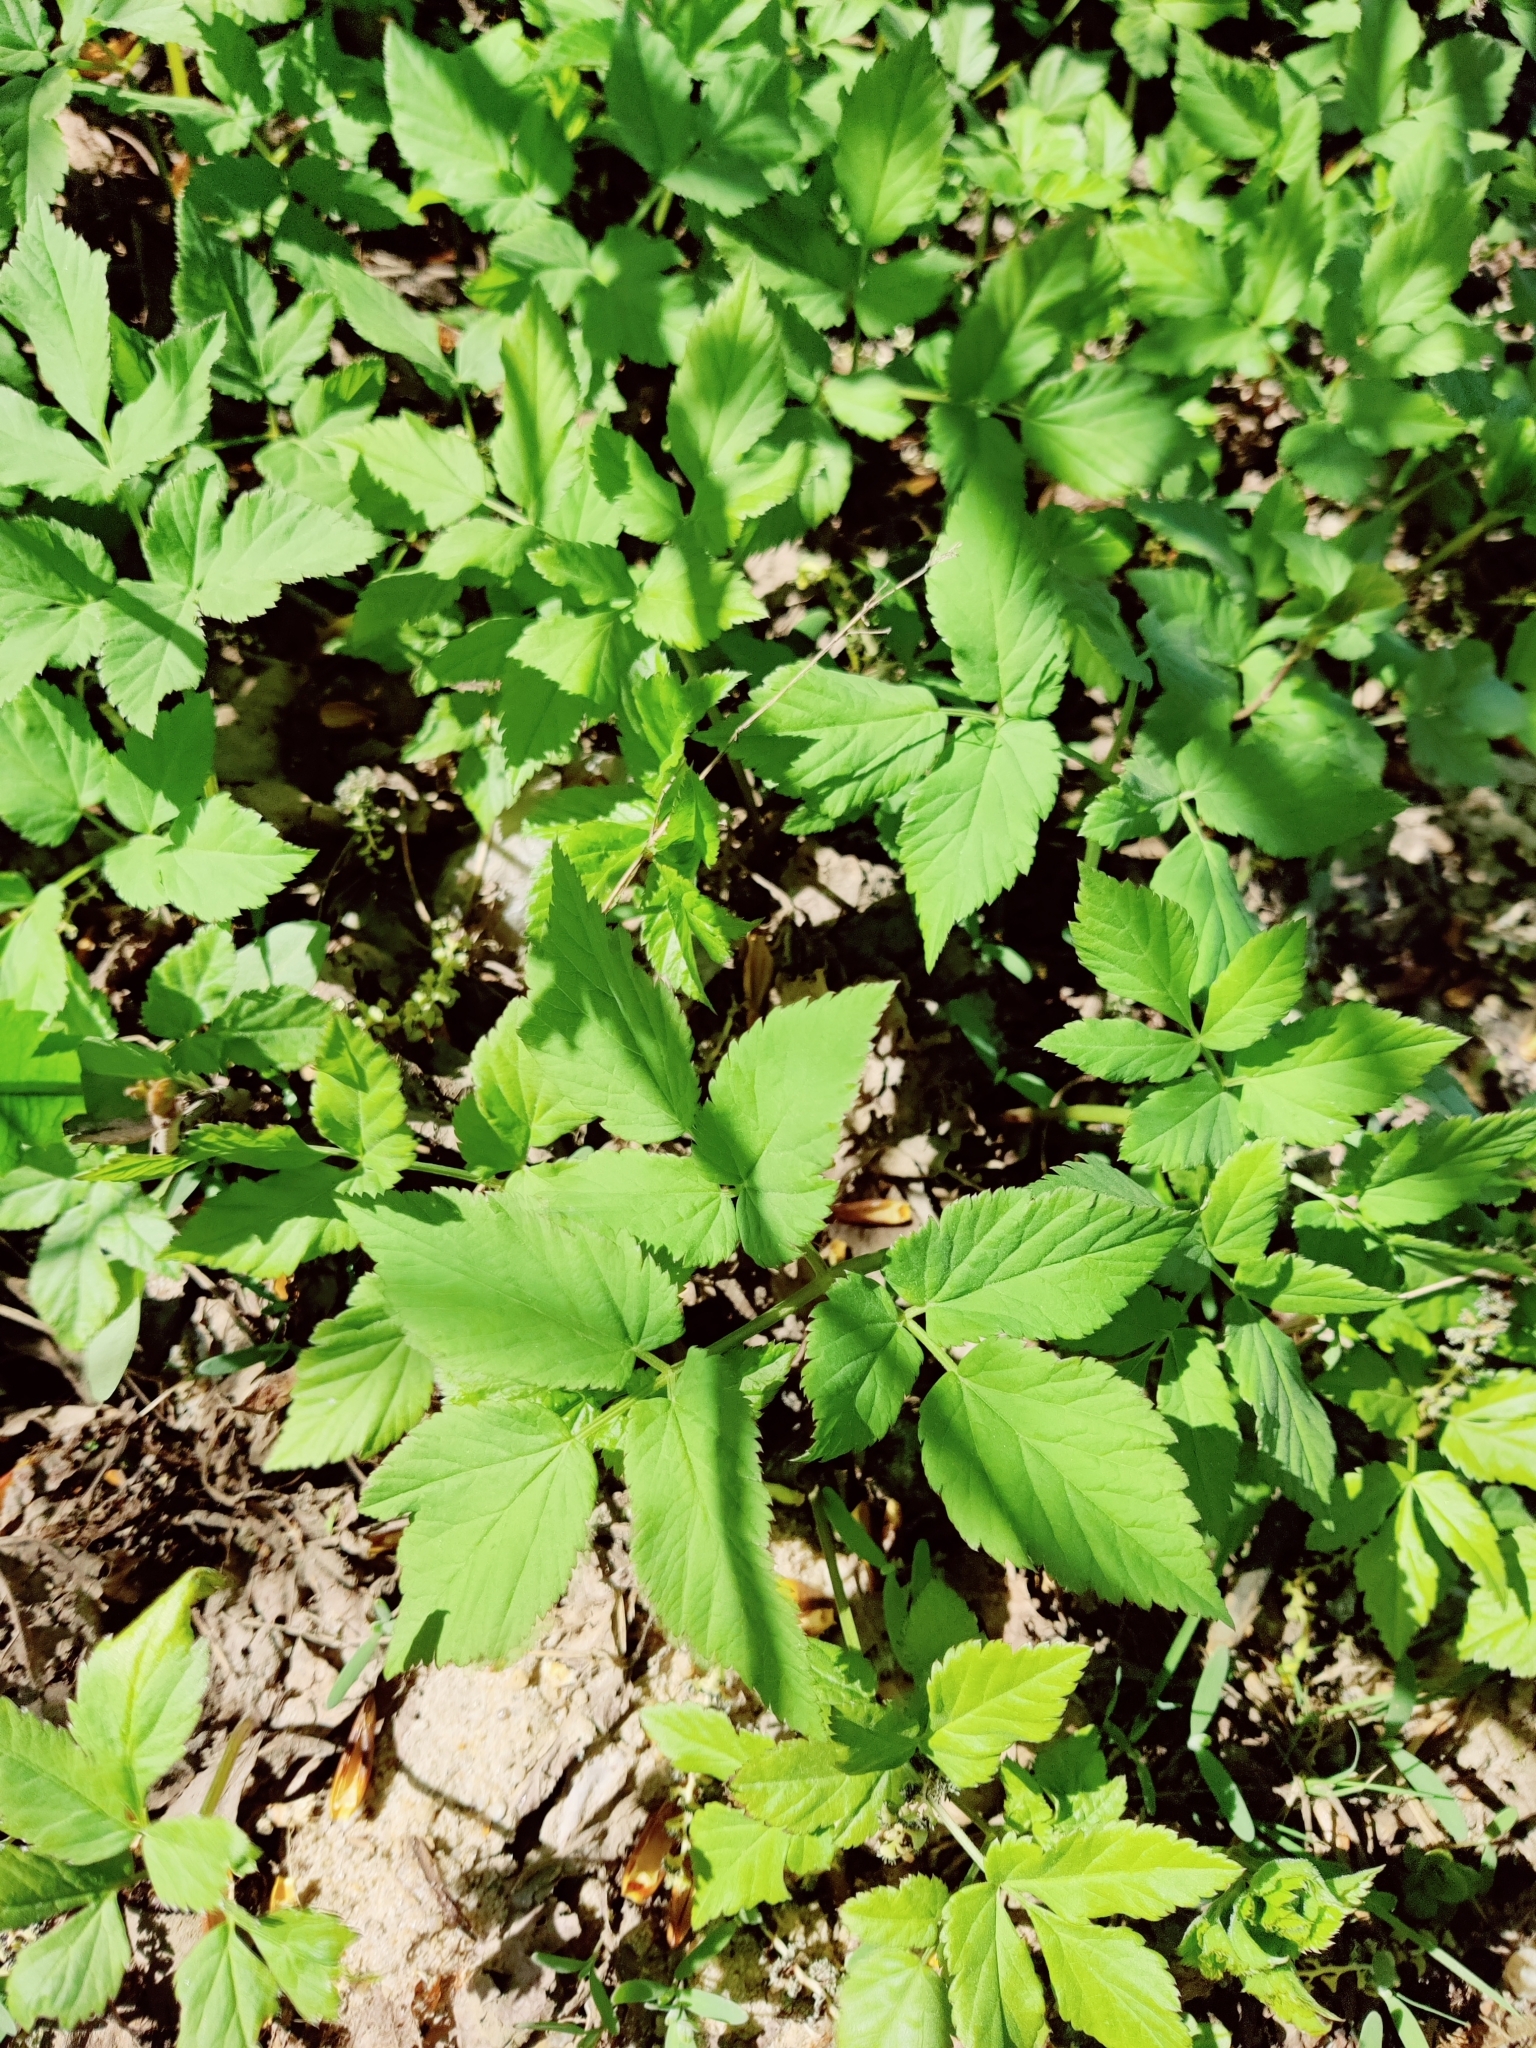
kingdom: Plantae
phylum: Tracheophyta
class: Magnoliopsida
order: Apiales
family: Apiaceae
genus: Aegopodium
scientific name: Aegopodium podagraria
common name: Ground-elder
